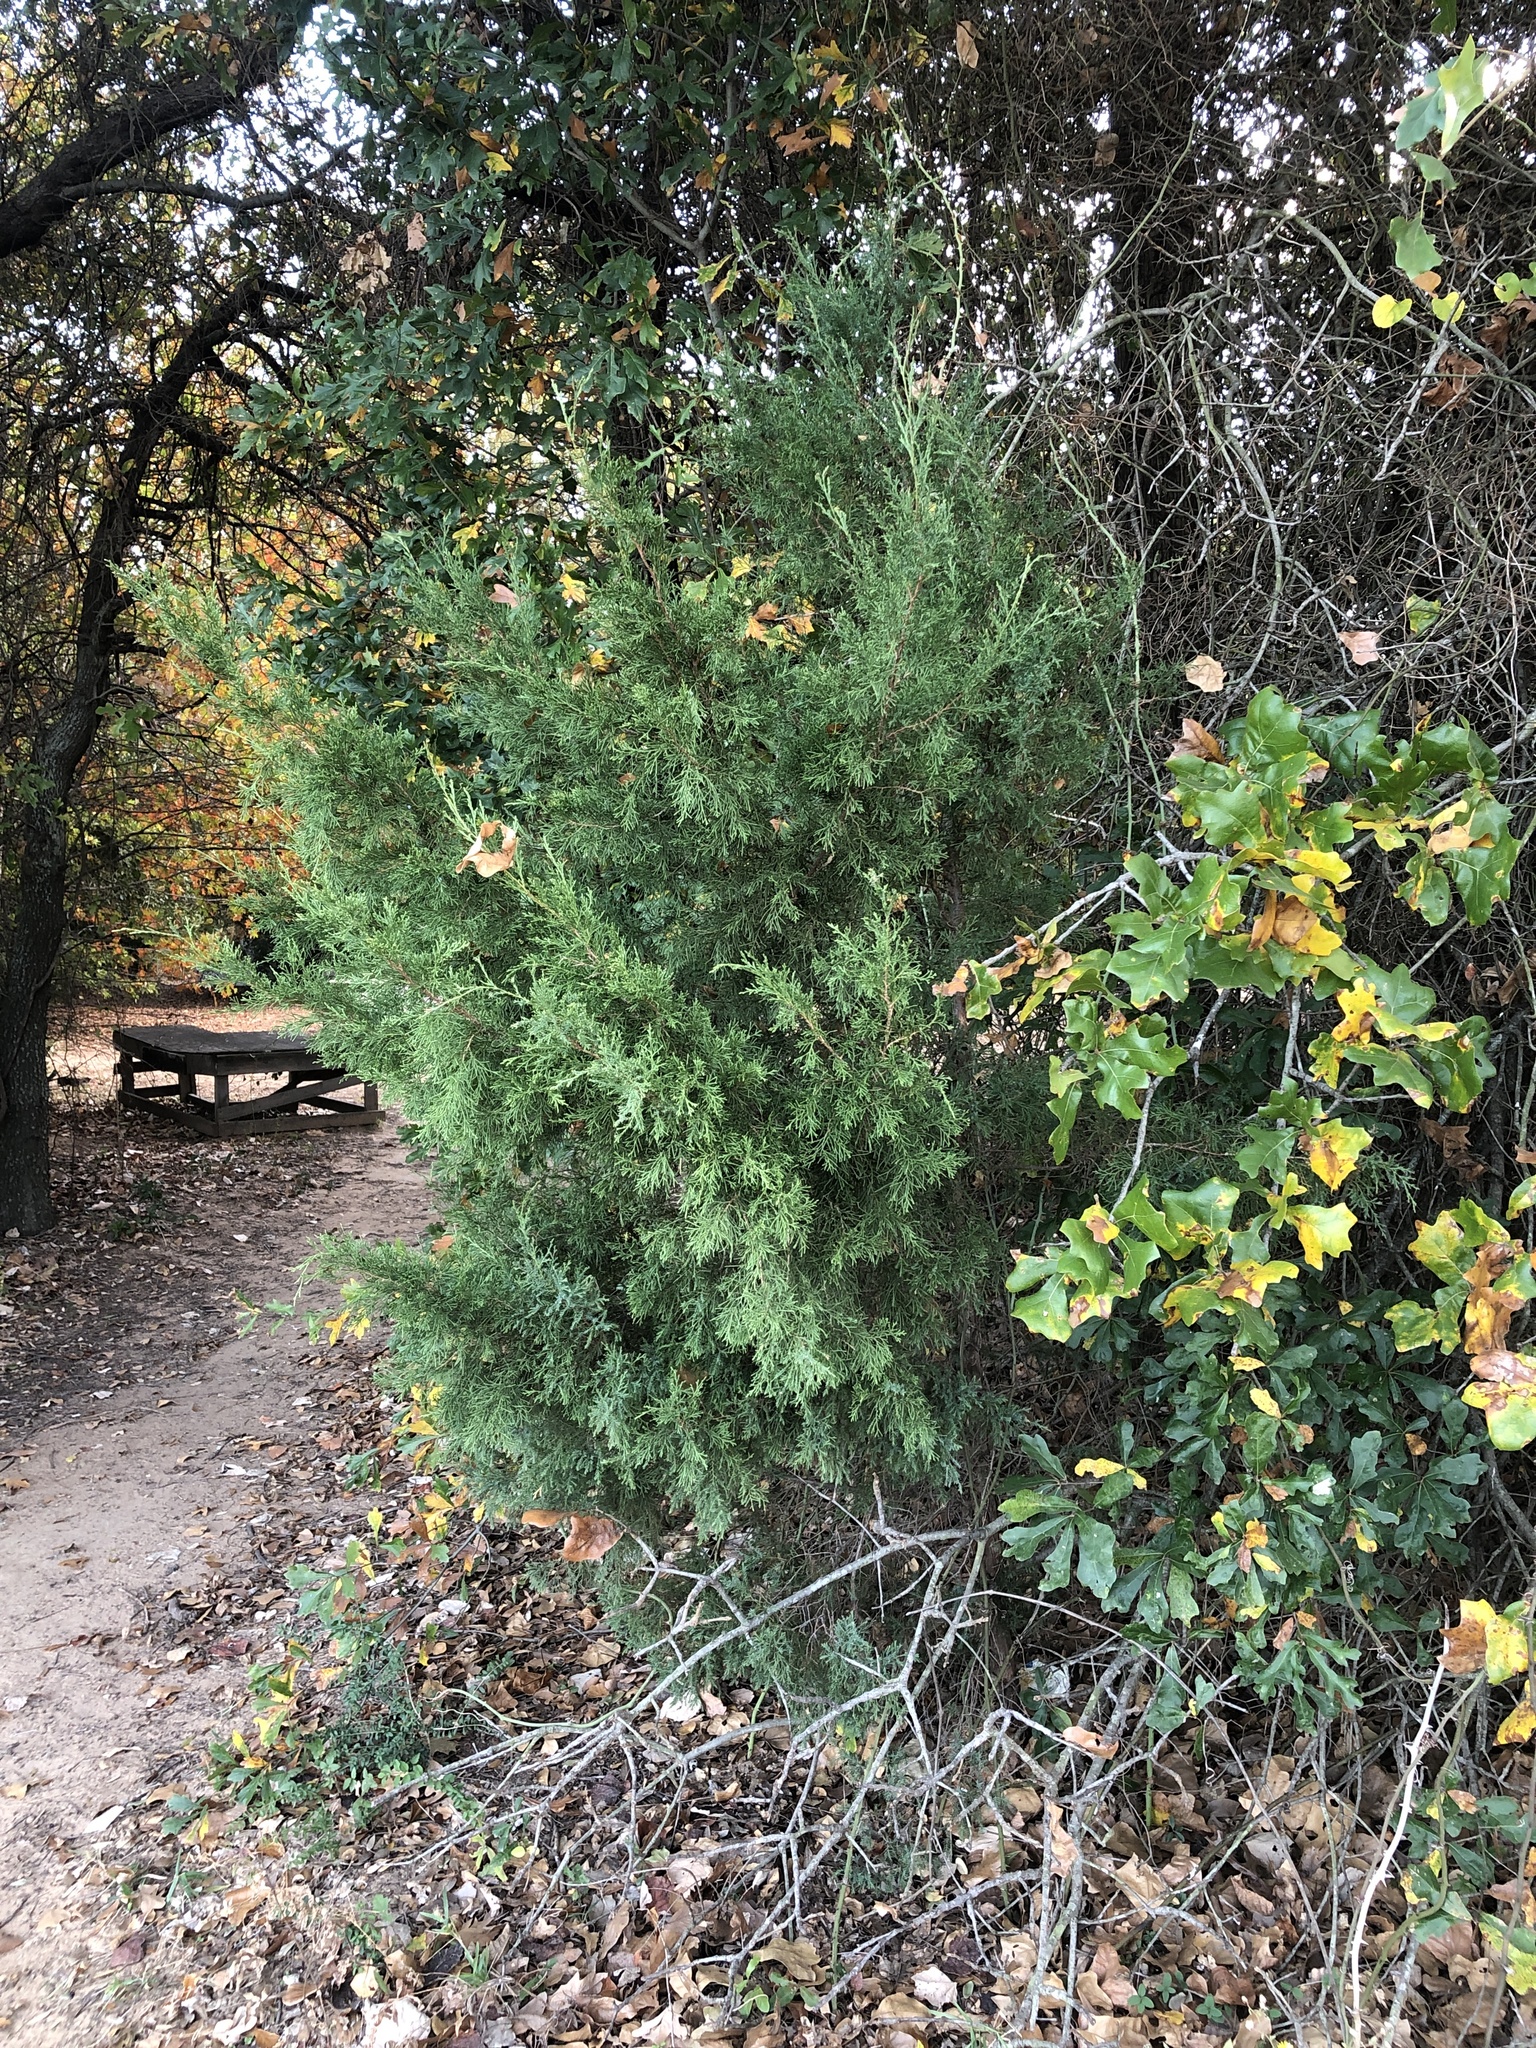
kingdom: Plantae
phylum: Tracheophyta
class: Pinopsida
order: Pinales
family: Cupressaceae
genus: Juniperus
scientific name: Juniperus virginiana
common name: Red juniper
